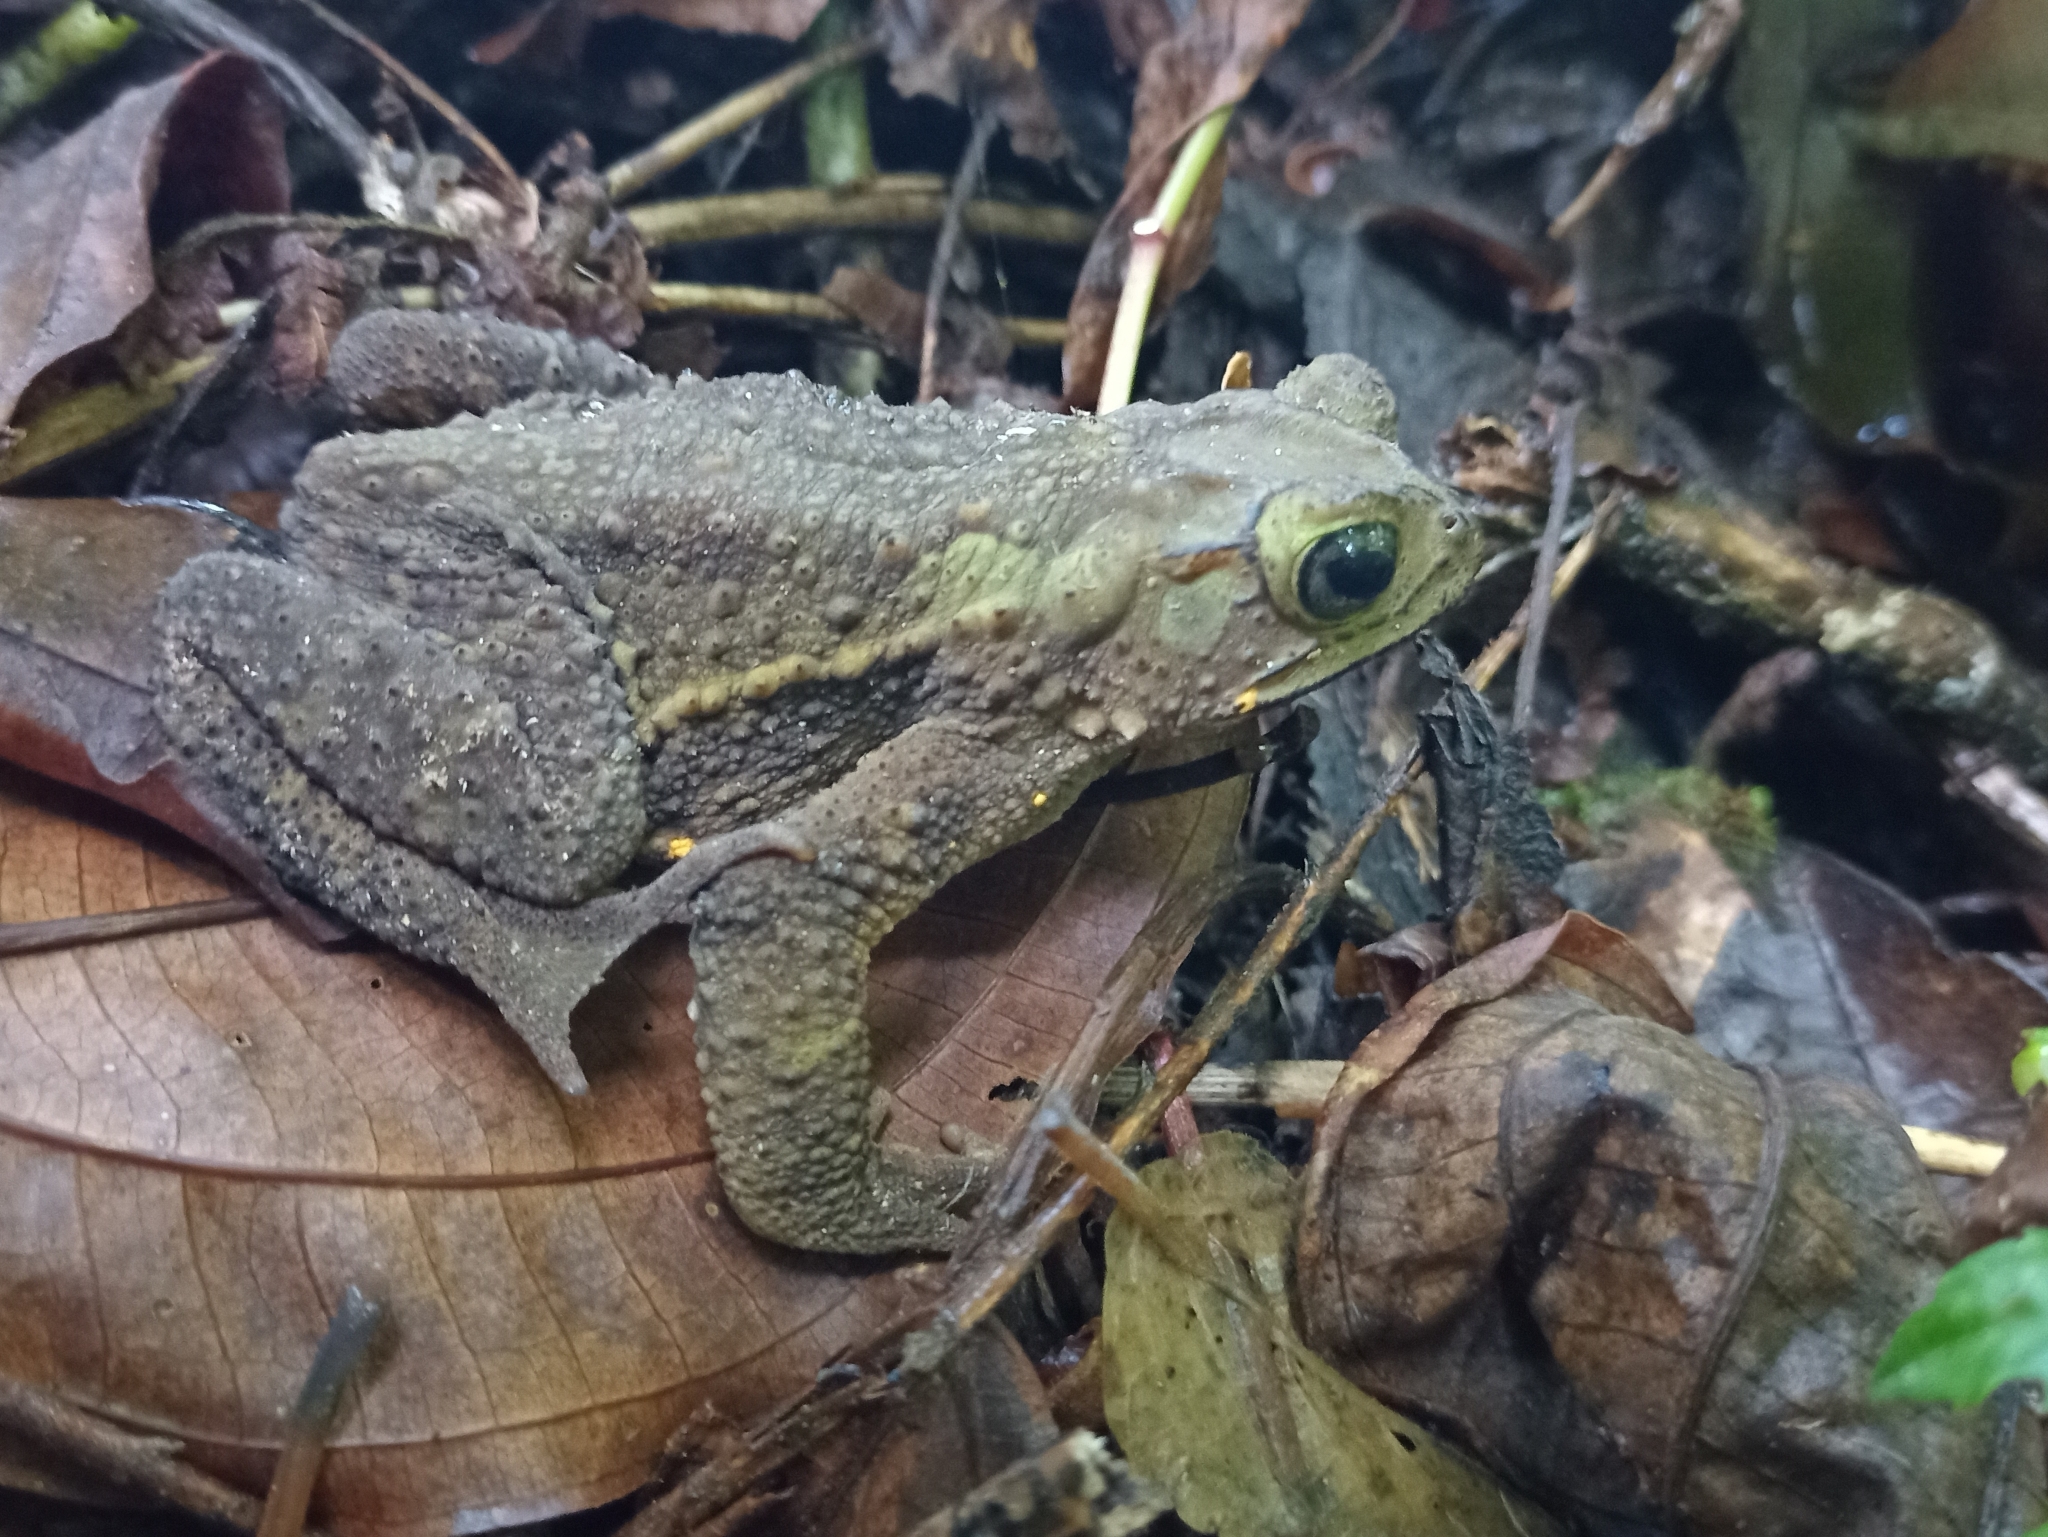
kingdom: Animalia
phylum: Chordata
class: Amphibia
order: Anura
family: Bufonidae
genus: Incilius
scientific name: Incilius coniferus
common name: Evergreen toad
